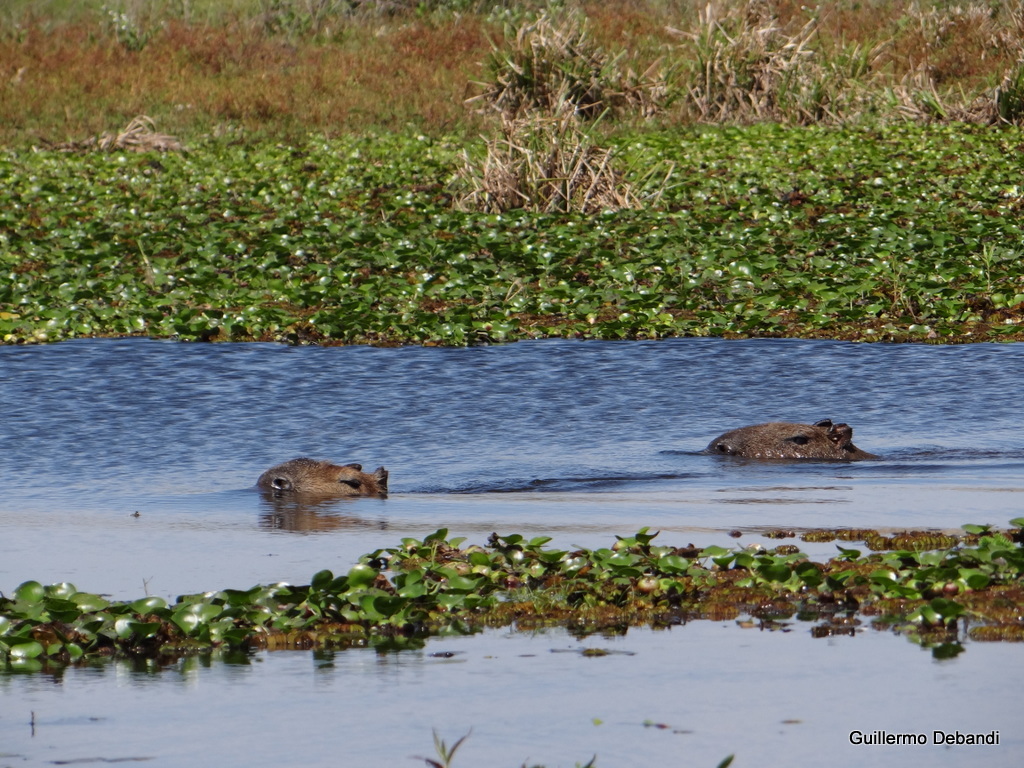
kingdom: Animalia
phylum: Chordata
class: Mammalia
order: Rodentia
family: Caviidae
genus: Hydrochoerus
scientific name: Hydrochoerus hydrochaeris
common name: Capybara
